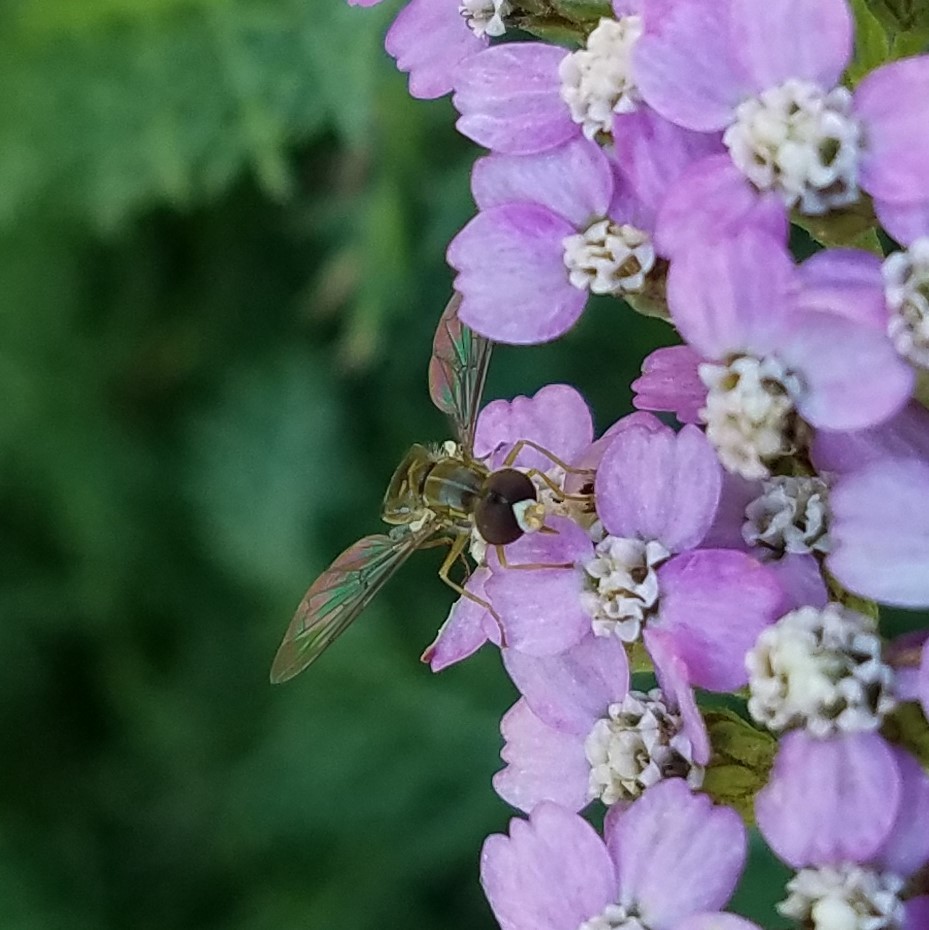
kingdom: Animalia
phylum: Arthropoda
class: Insecta
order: Diptera
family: Syrphidae
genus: Toxomerus
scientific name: Toxomerus marginatus
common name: Syrphid fly
